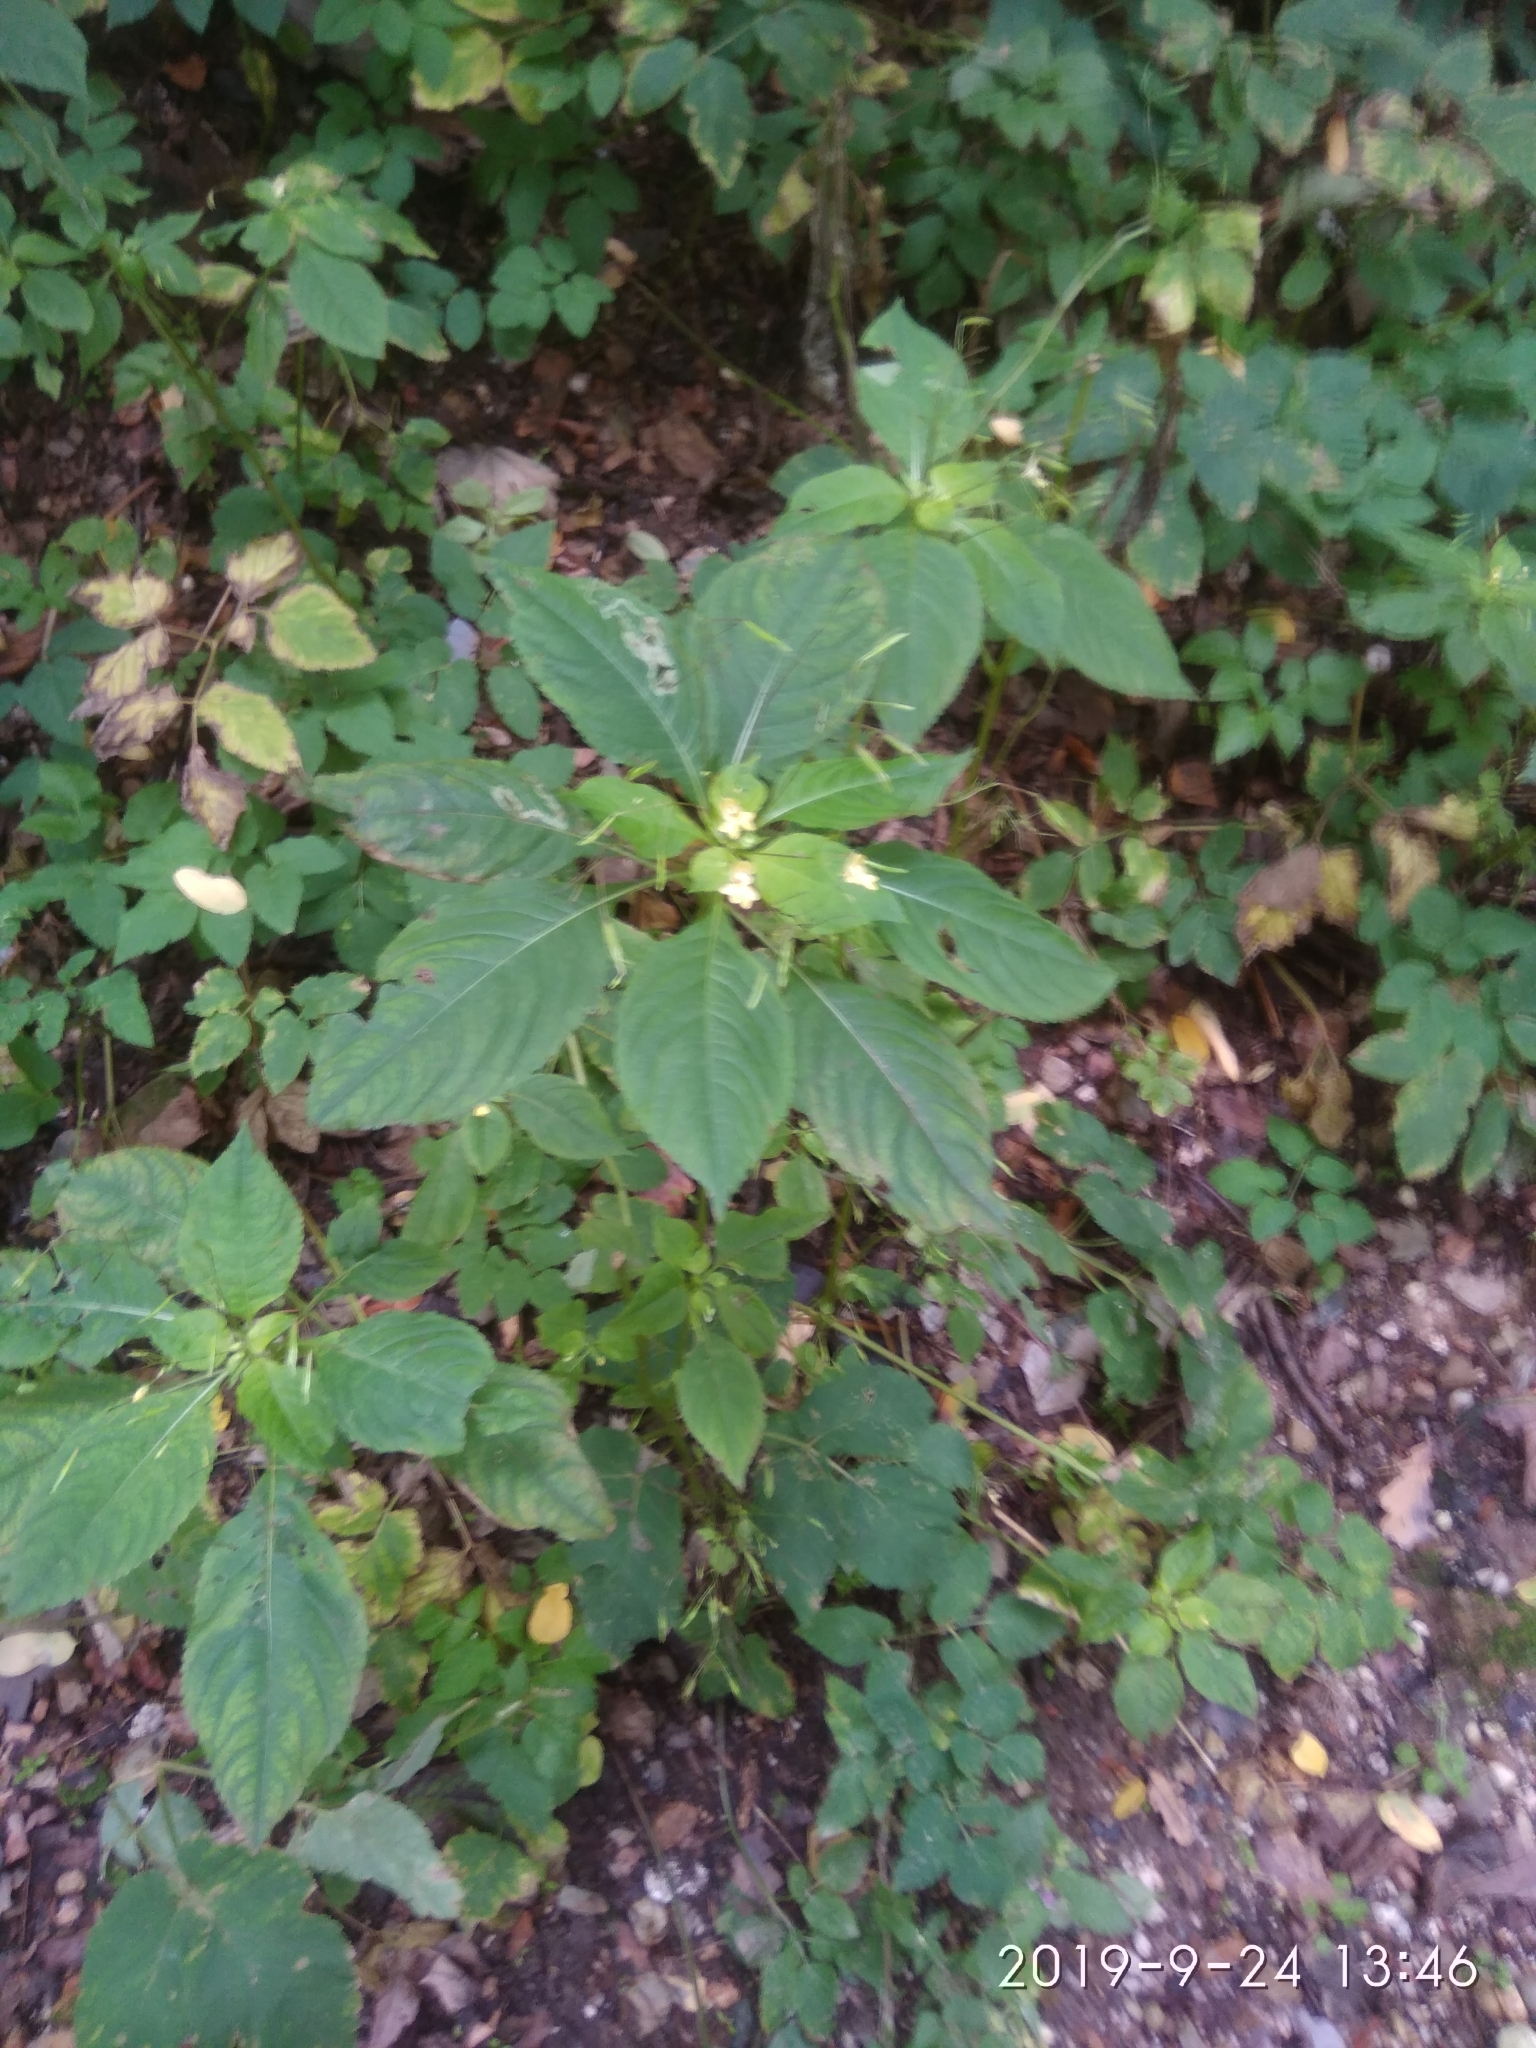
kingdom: Plantae
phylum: Tracheophyta
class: Magnoliopsida
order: Ericales
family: Balsaminaceae
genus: Impatiens
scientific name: Impatiens parviflora
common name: Small balsam
